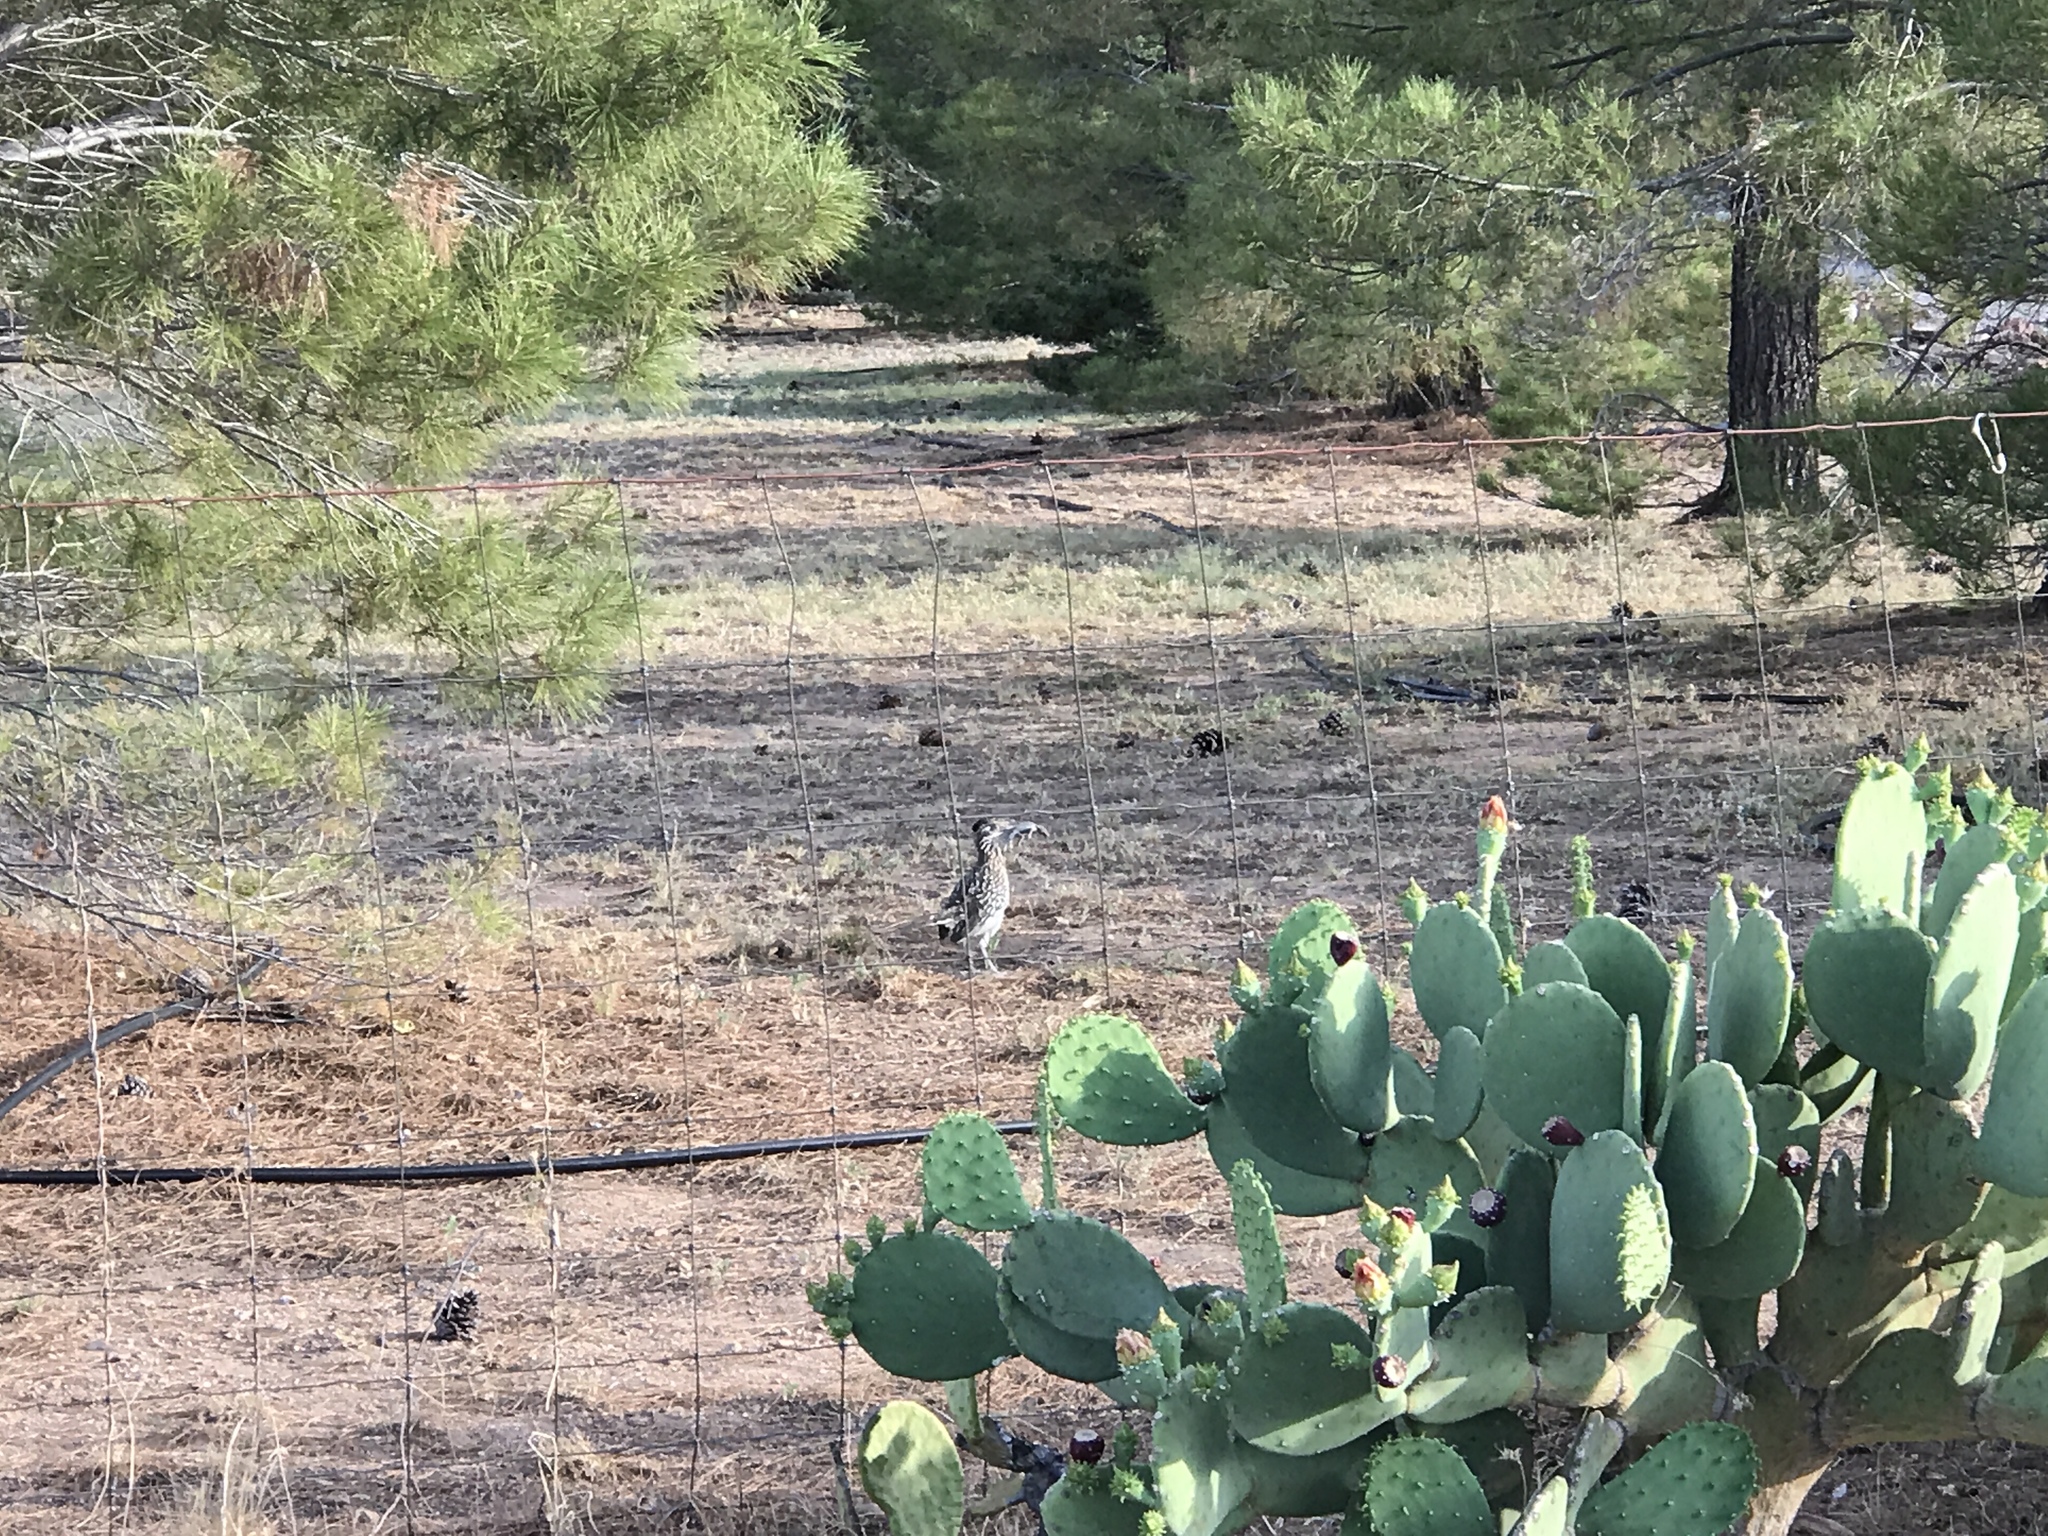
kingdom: Animalia
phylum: Chordata
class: Aves
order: Cuculiformes
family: Cuculidae
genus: Geococcyx
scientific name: Geococcyx californianus
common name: Greater roadrunner
